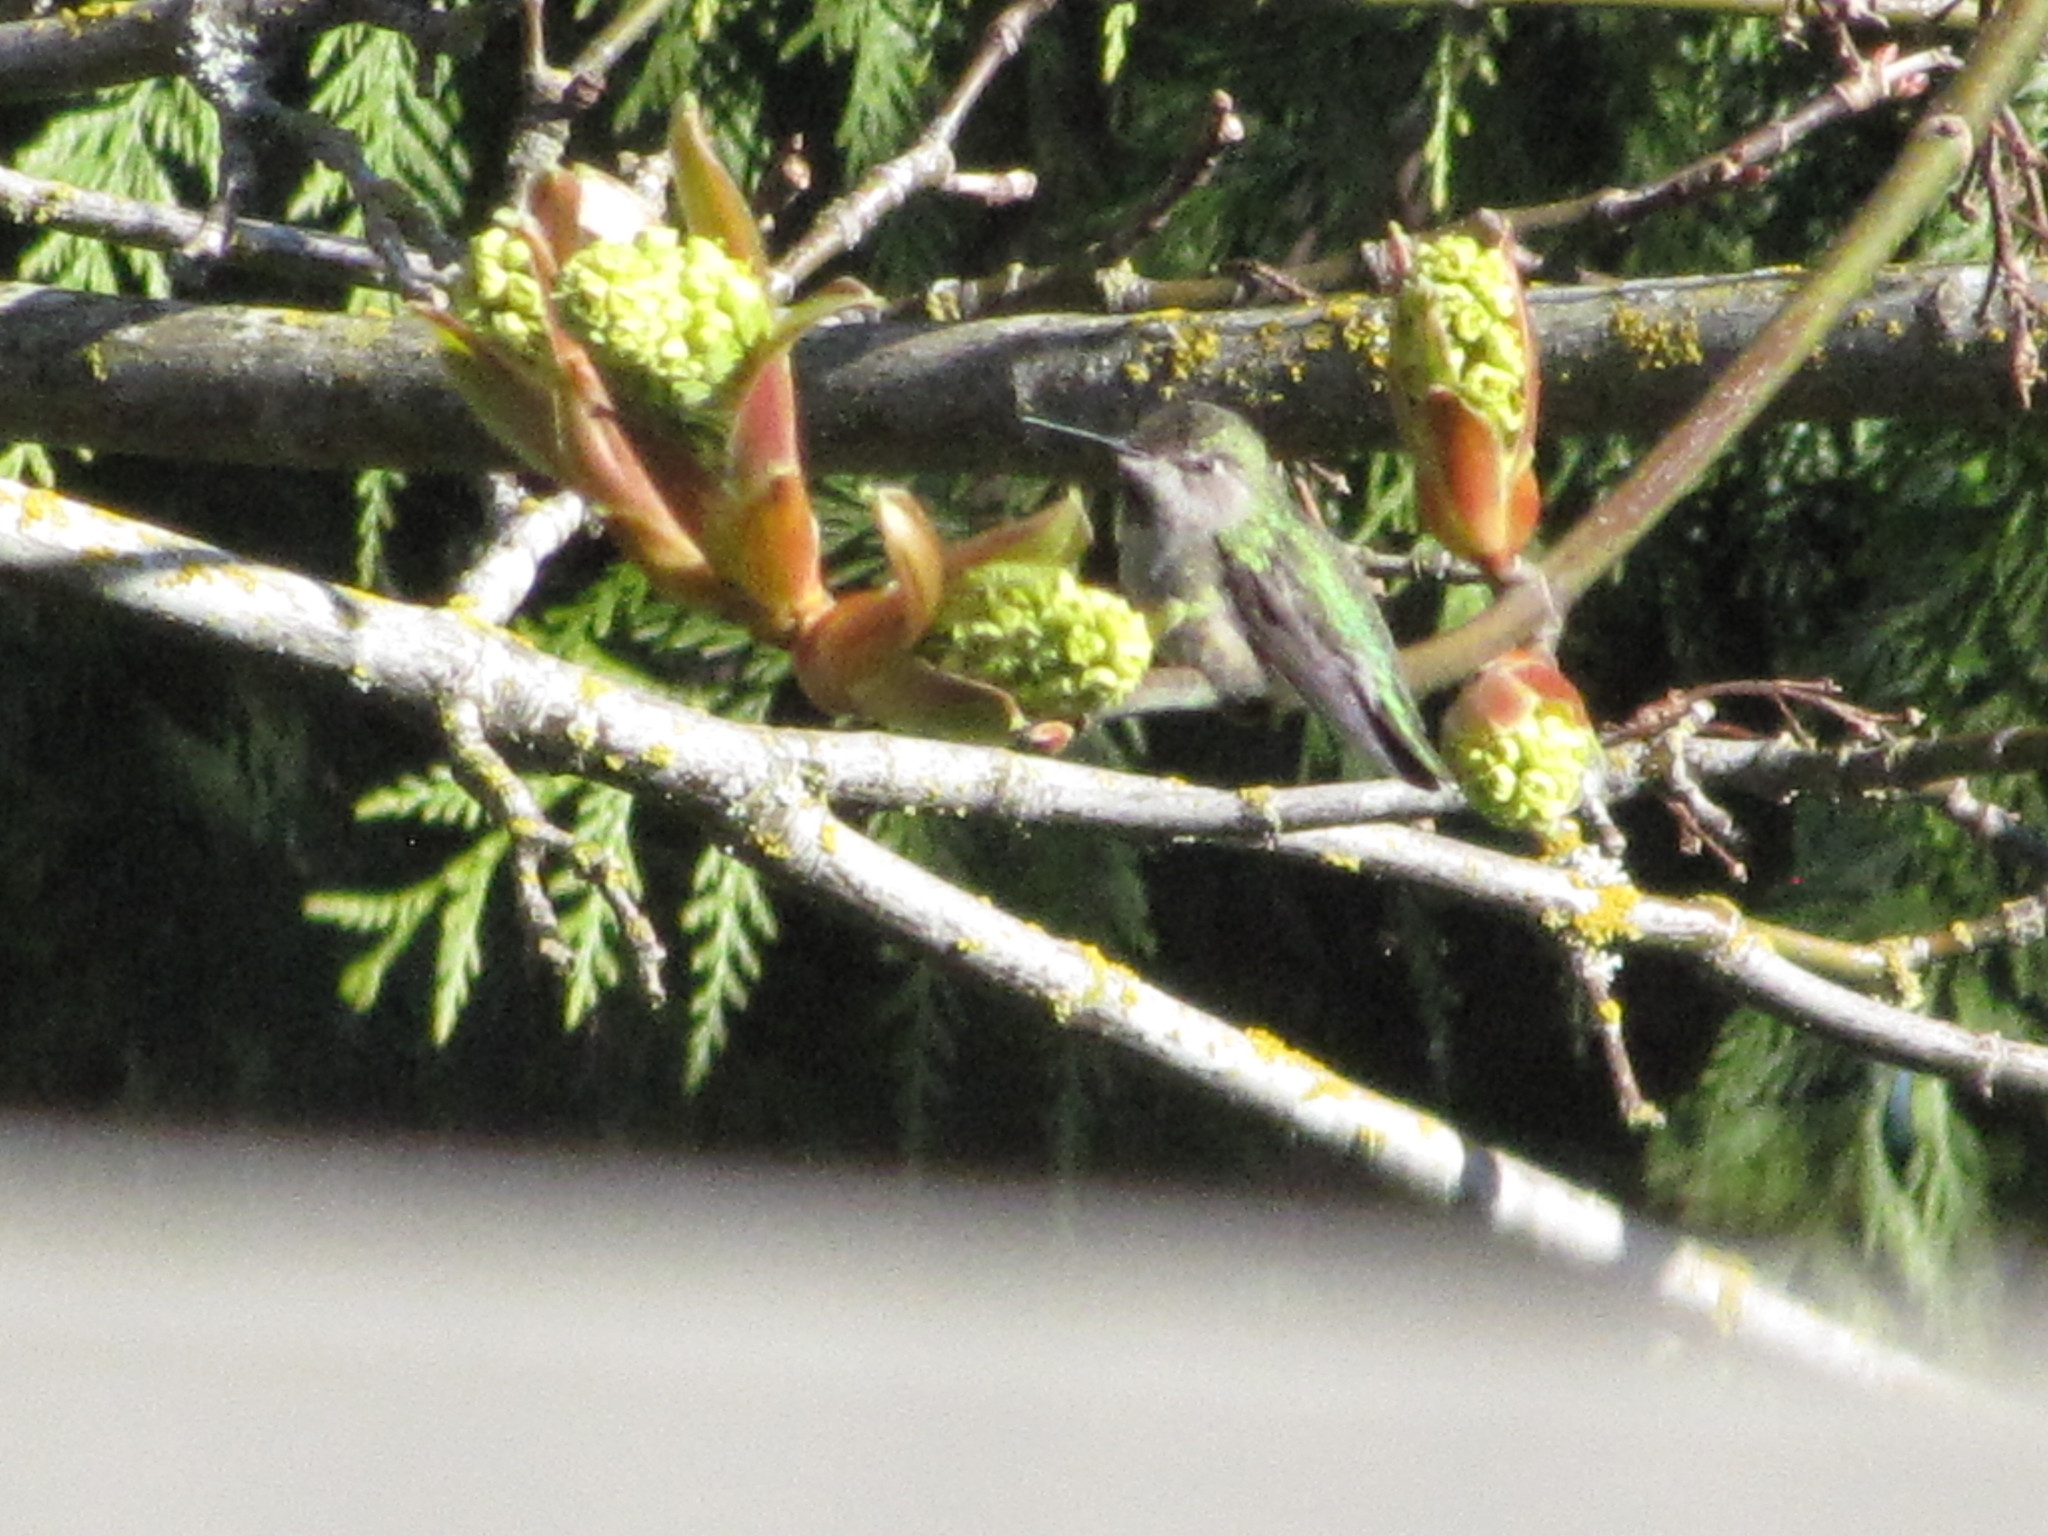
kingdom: Animalia
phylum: Chordata
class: Aves
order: Apodiformes
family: Trochilidae
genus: Calypte
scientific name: Calypte anna
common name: Anna's hummingbird
